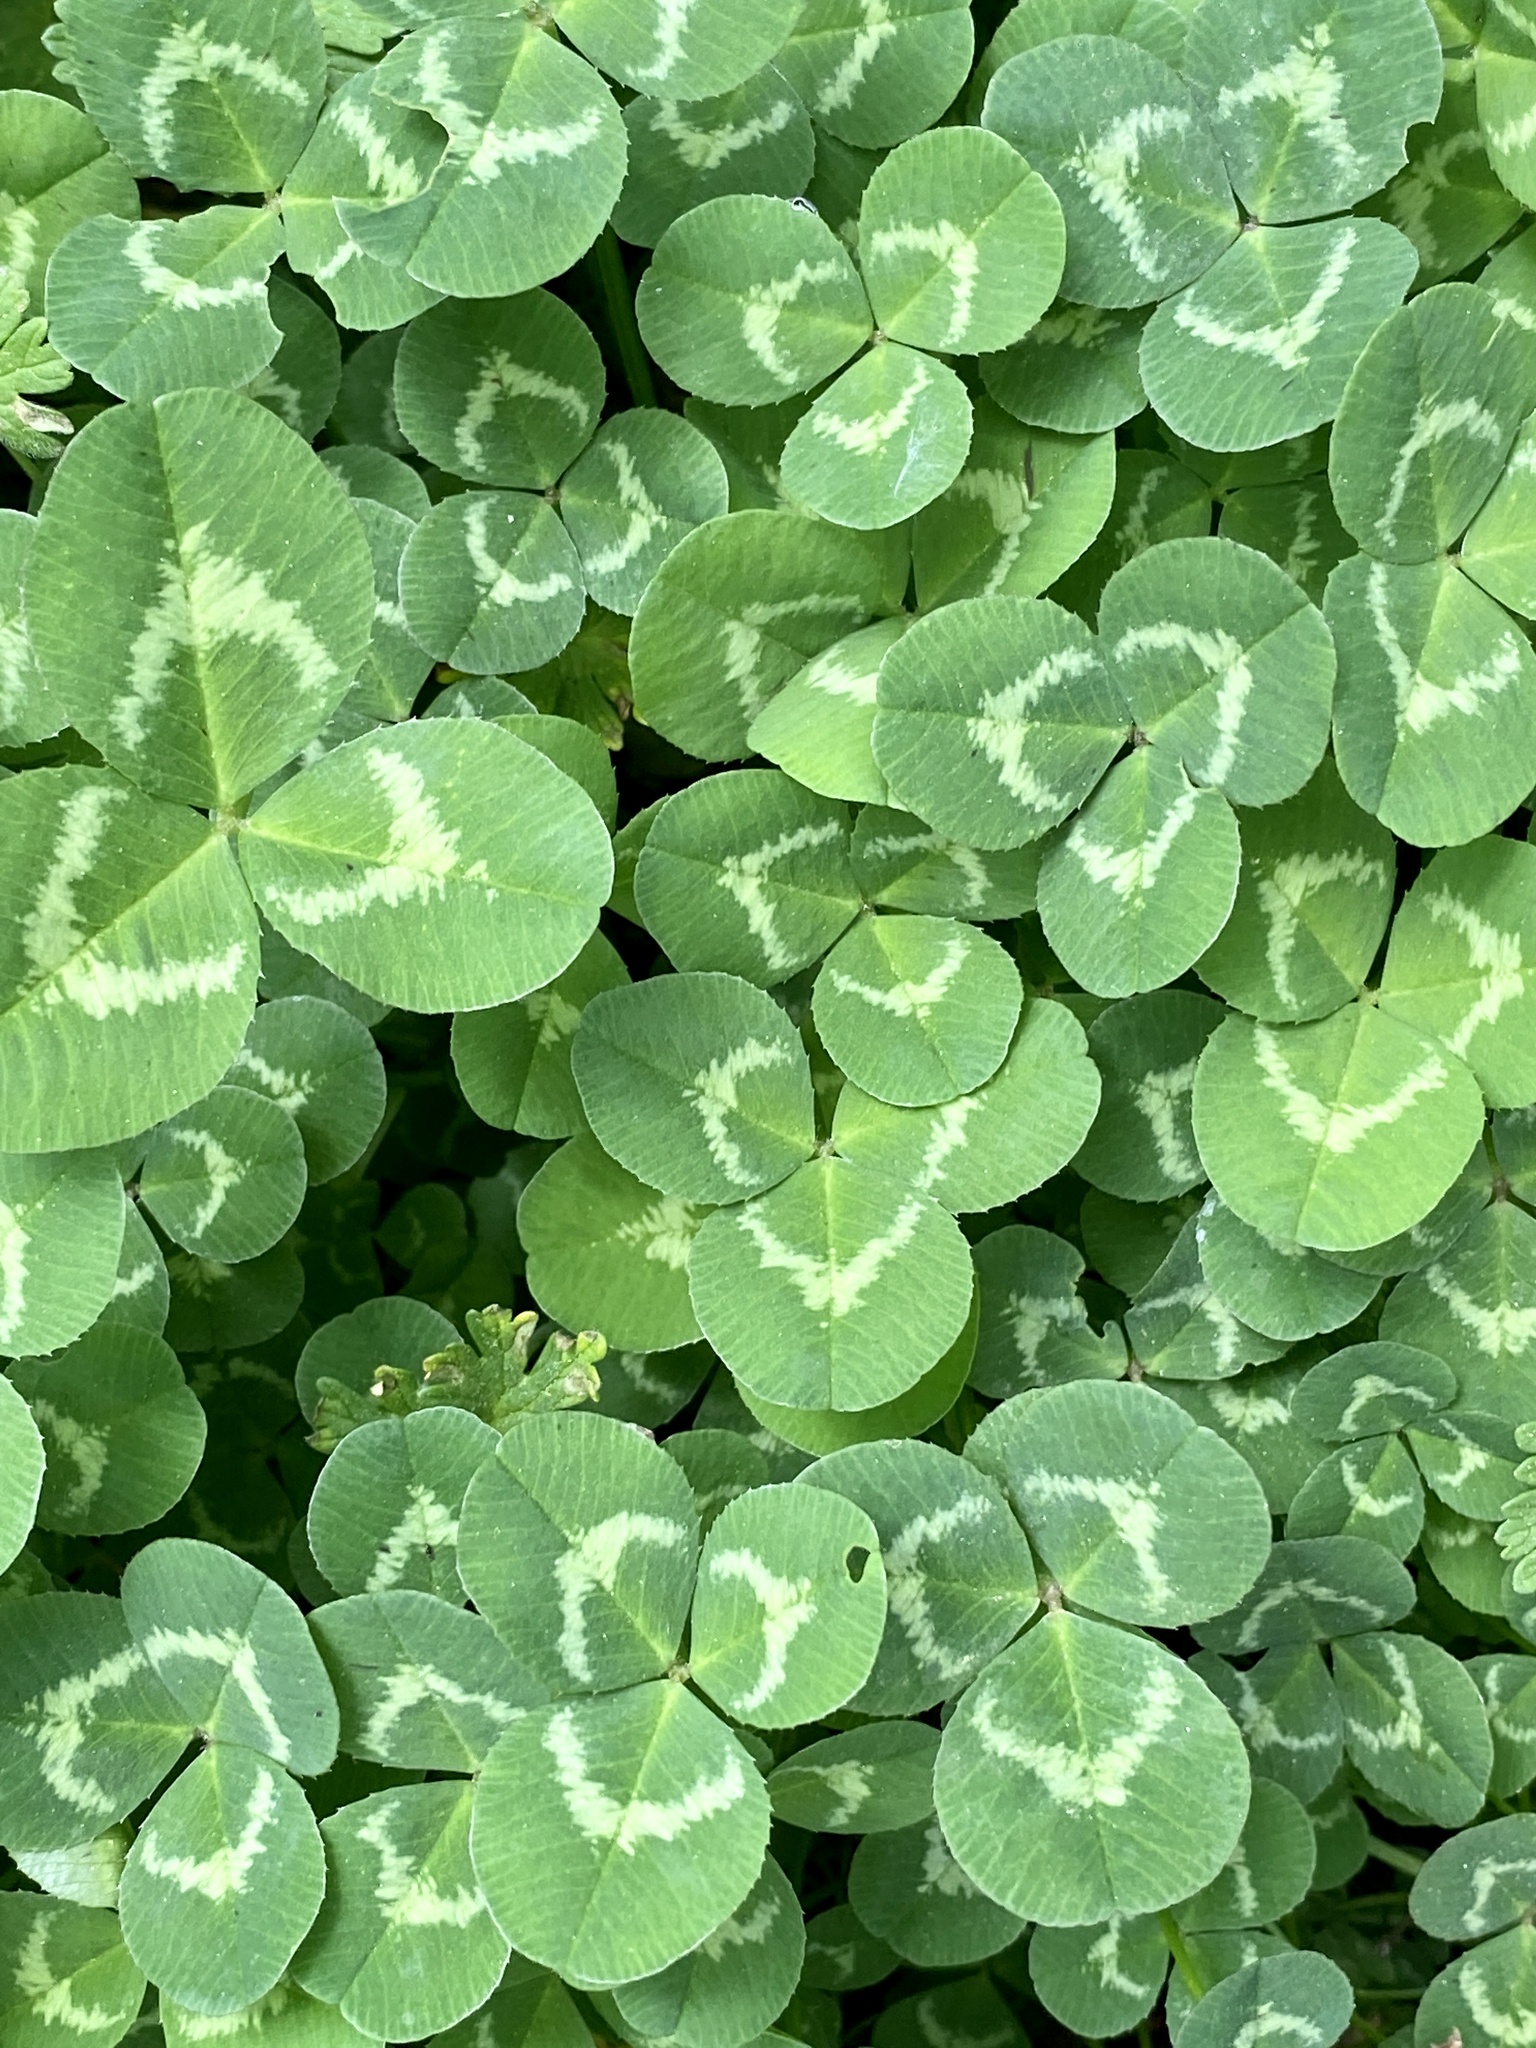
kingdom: Plantae
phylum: Tracheophyta
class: Magnoliopsida
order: Fabales
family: Fabaceae
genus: Trifolium
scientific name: Trifolium repens
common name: White clover
